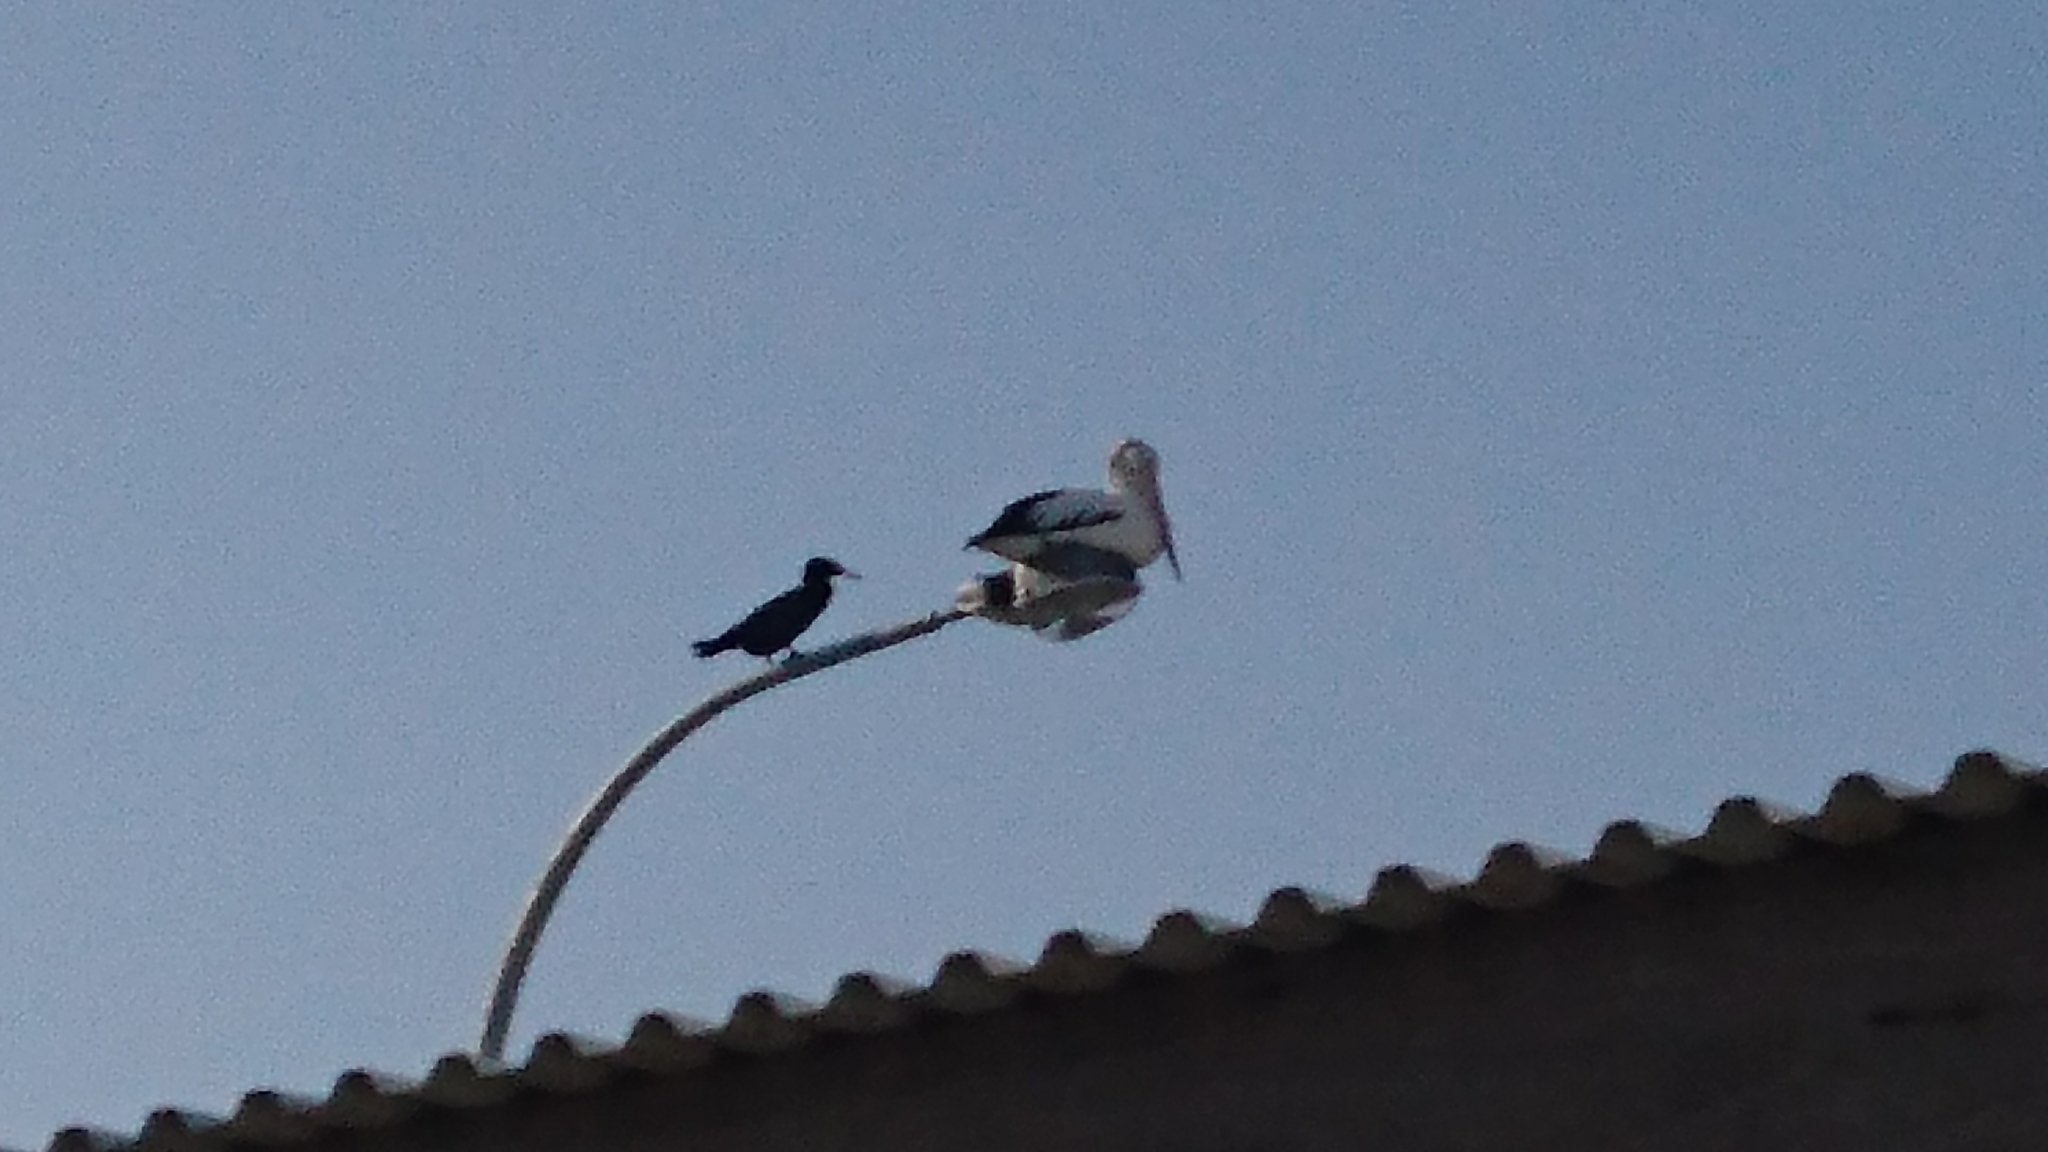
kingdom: Animalia
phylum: Chordata
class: Aves
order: Pelecaniformes
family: Pelecanidae
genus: Pelecanus
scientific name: Pelecanus conspicillatus
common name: Australian pelican
